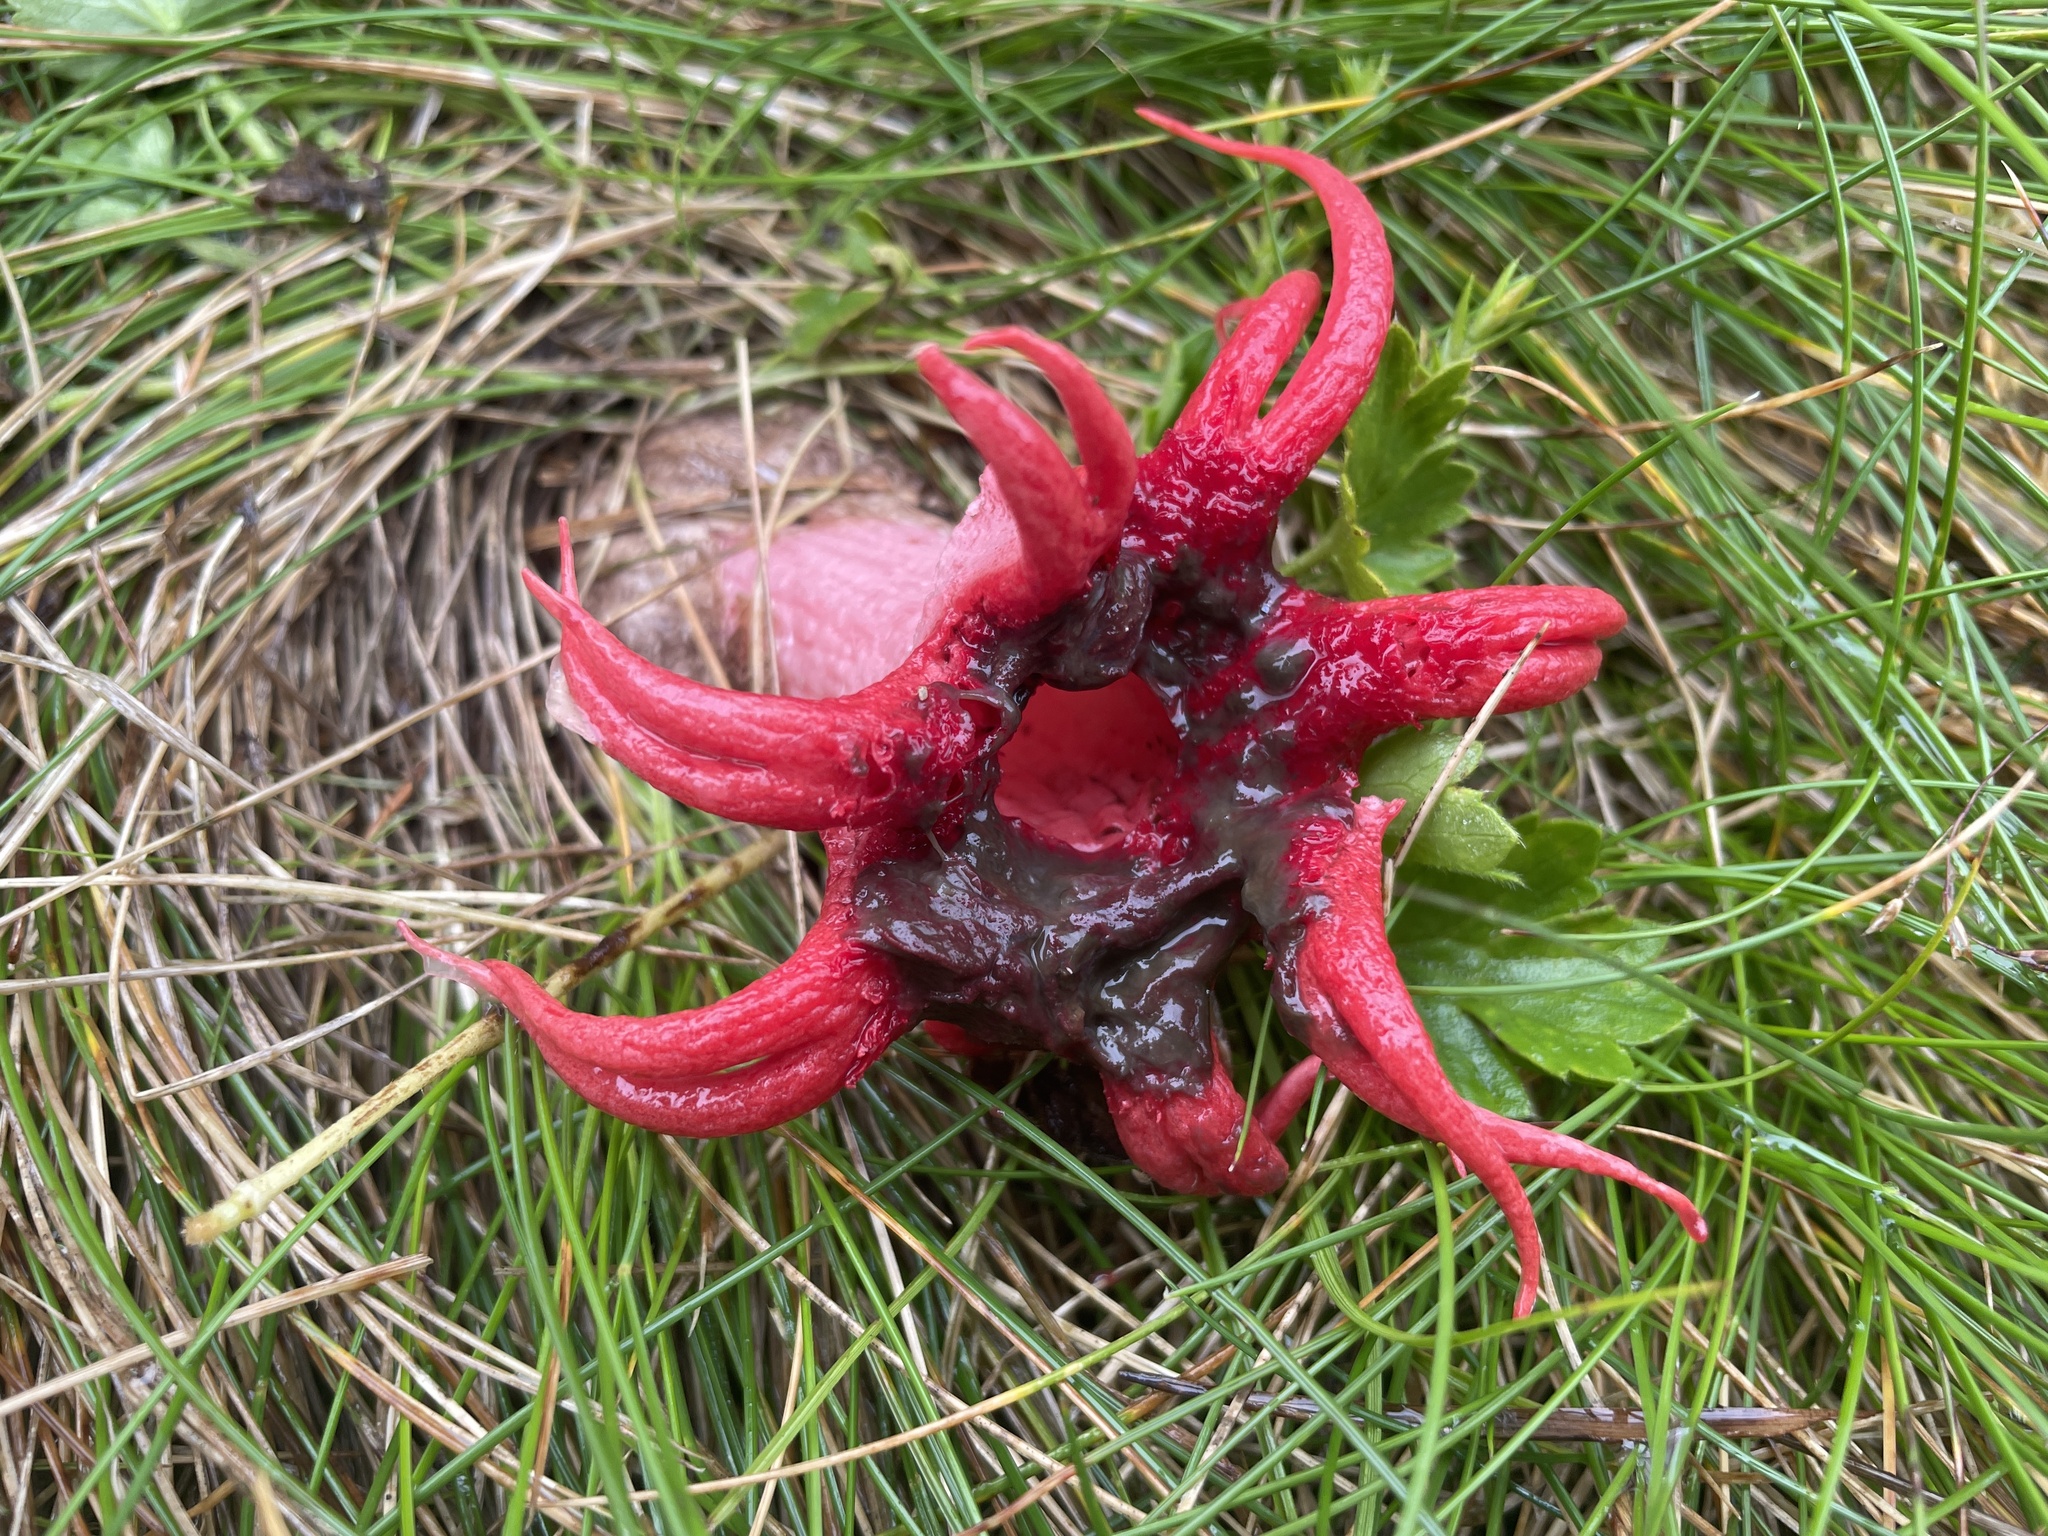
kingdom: Fungi
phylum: Basidiomycota
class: Agaricomycetes
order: Phallales
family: Phallaceae
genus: Aseroe
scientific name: Aseroe rubra
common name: Starfish fungus
